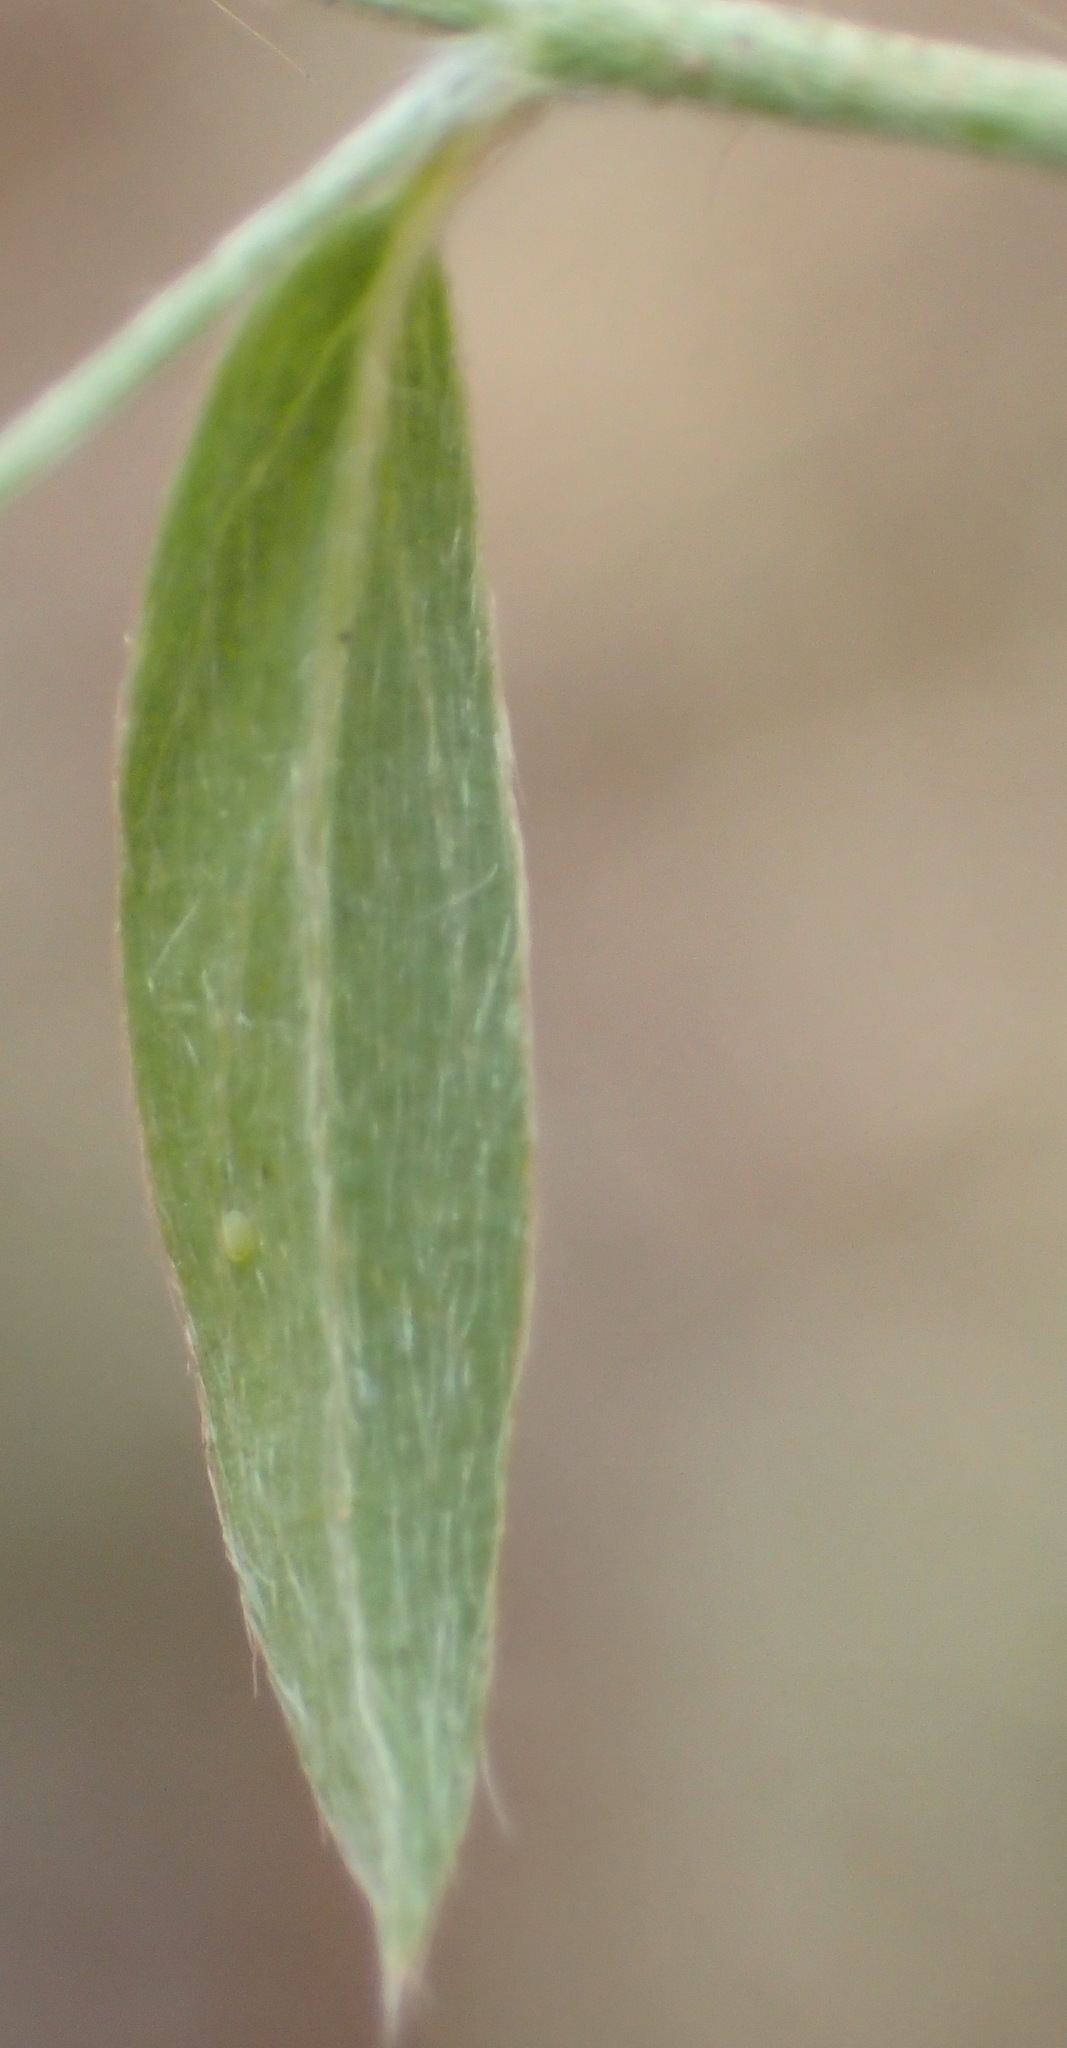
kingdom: Plantae
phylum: Tracheophyta
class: Magnoliopsida
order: Solanales
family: Convolvulaceae
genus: Evolvulus
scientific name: Evolvulus alsinoides
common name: Slender dwarf morning-glory
